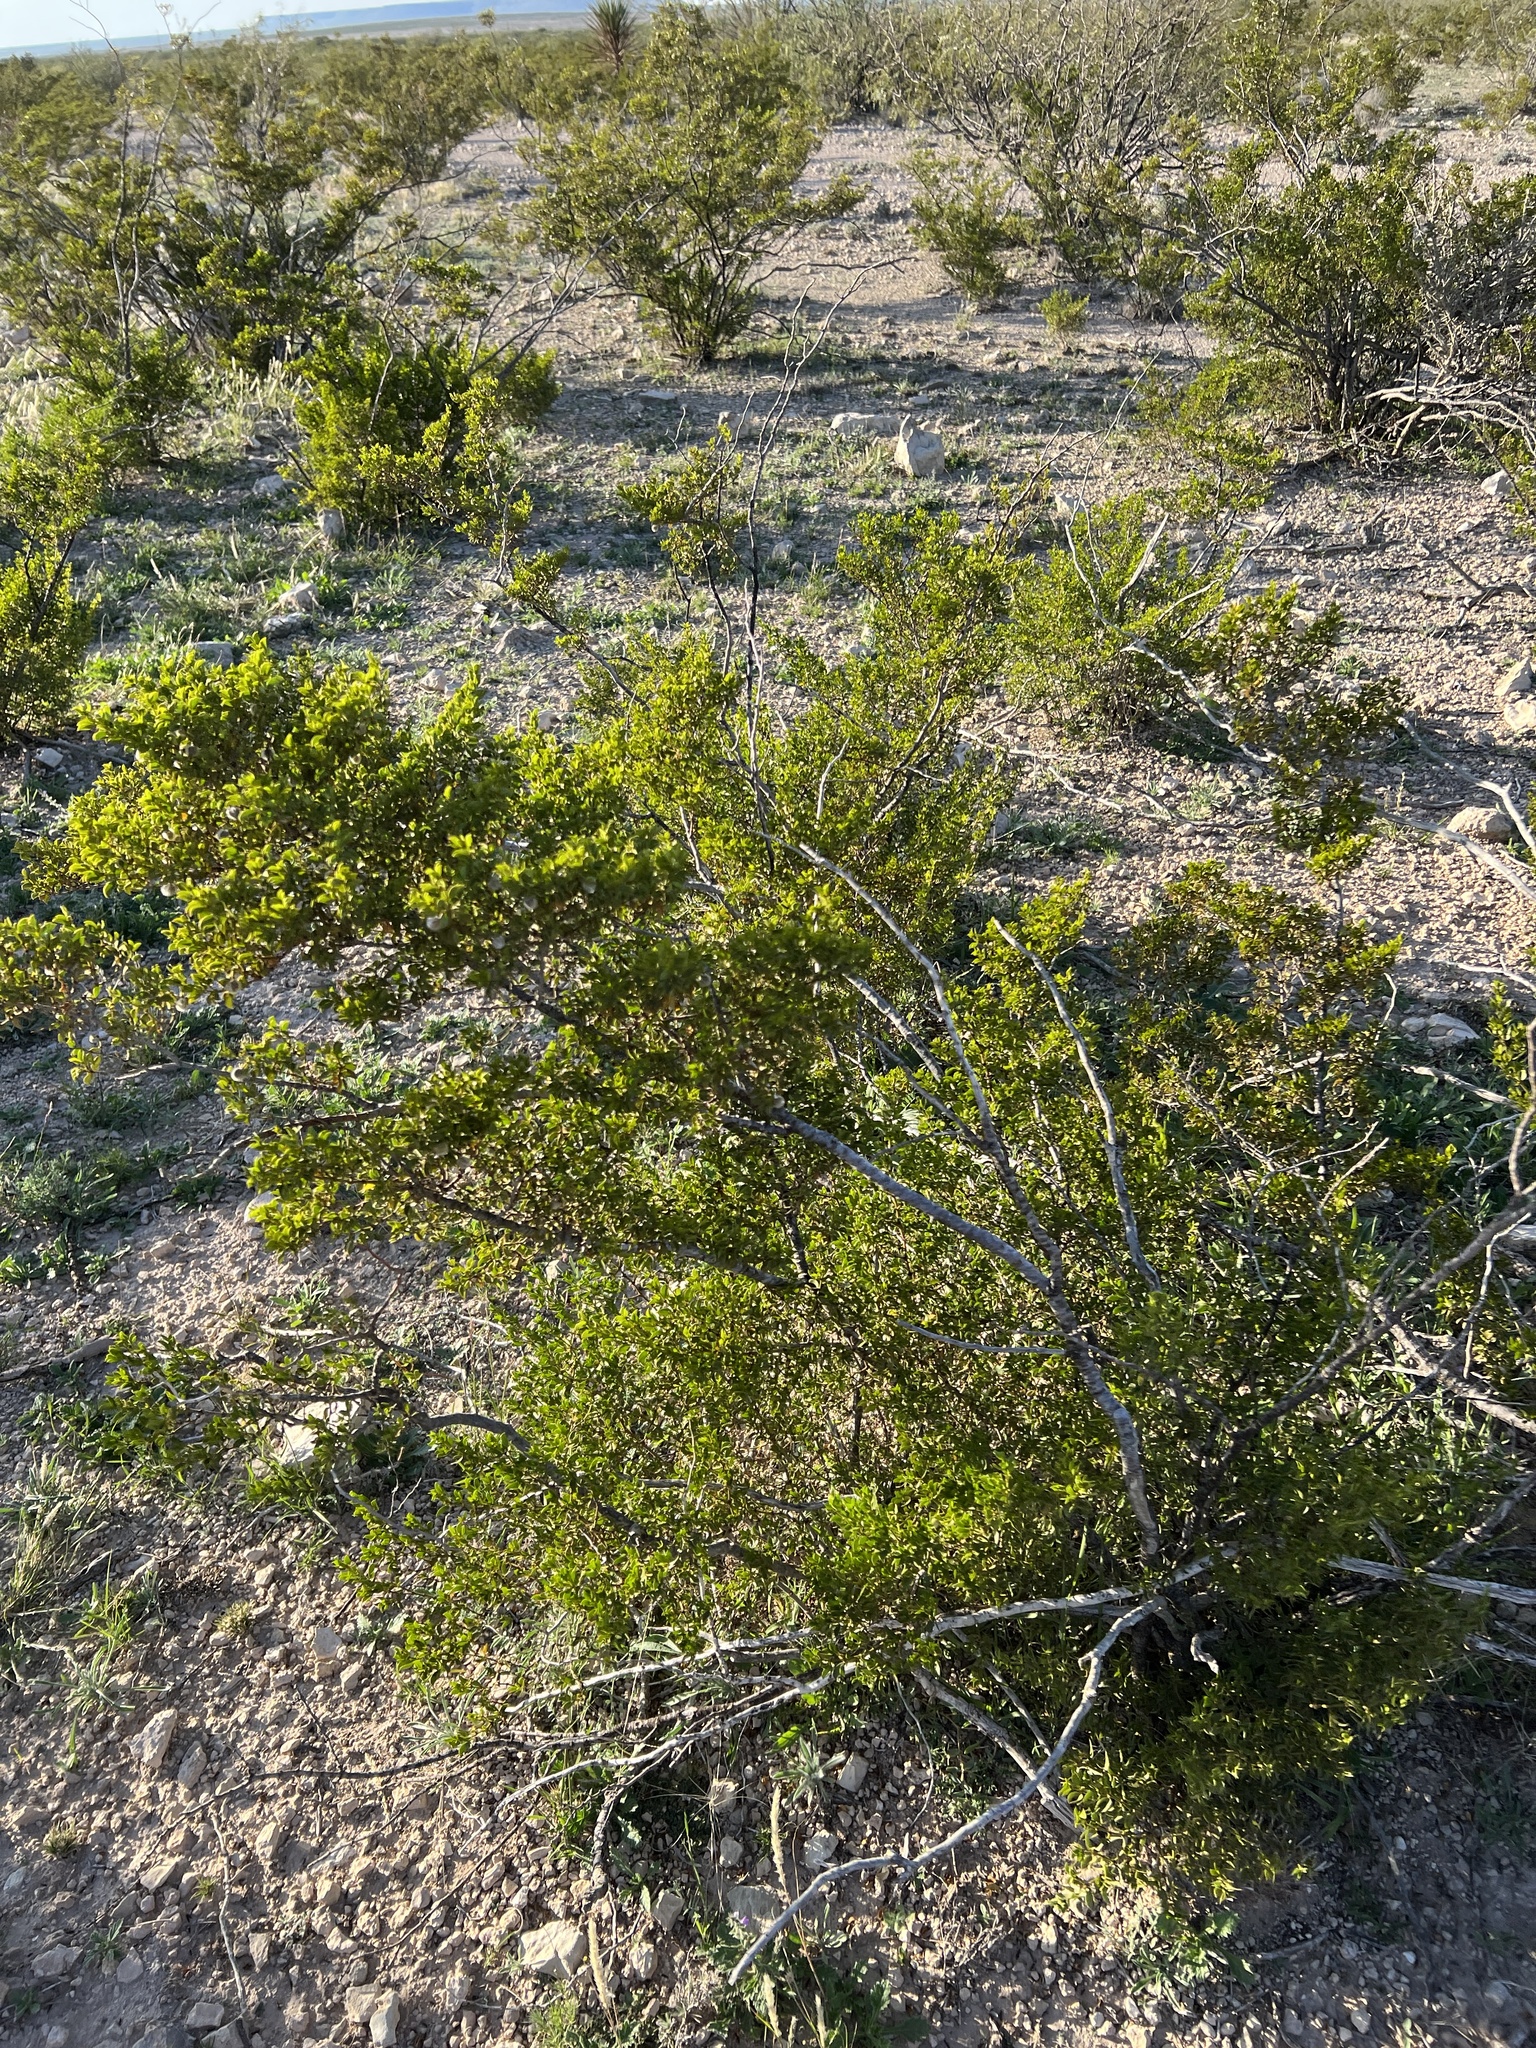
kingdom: Plantae
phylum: Tracheophyta
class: Magnoliopsida
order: Zygophyllales
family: Zygophyllaceae
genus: Larrea
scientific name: Larrea tridentata
